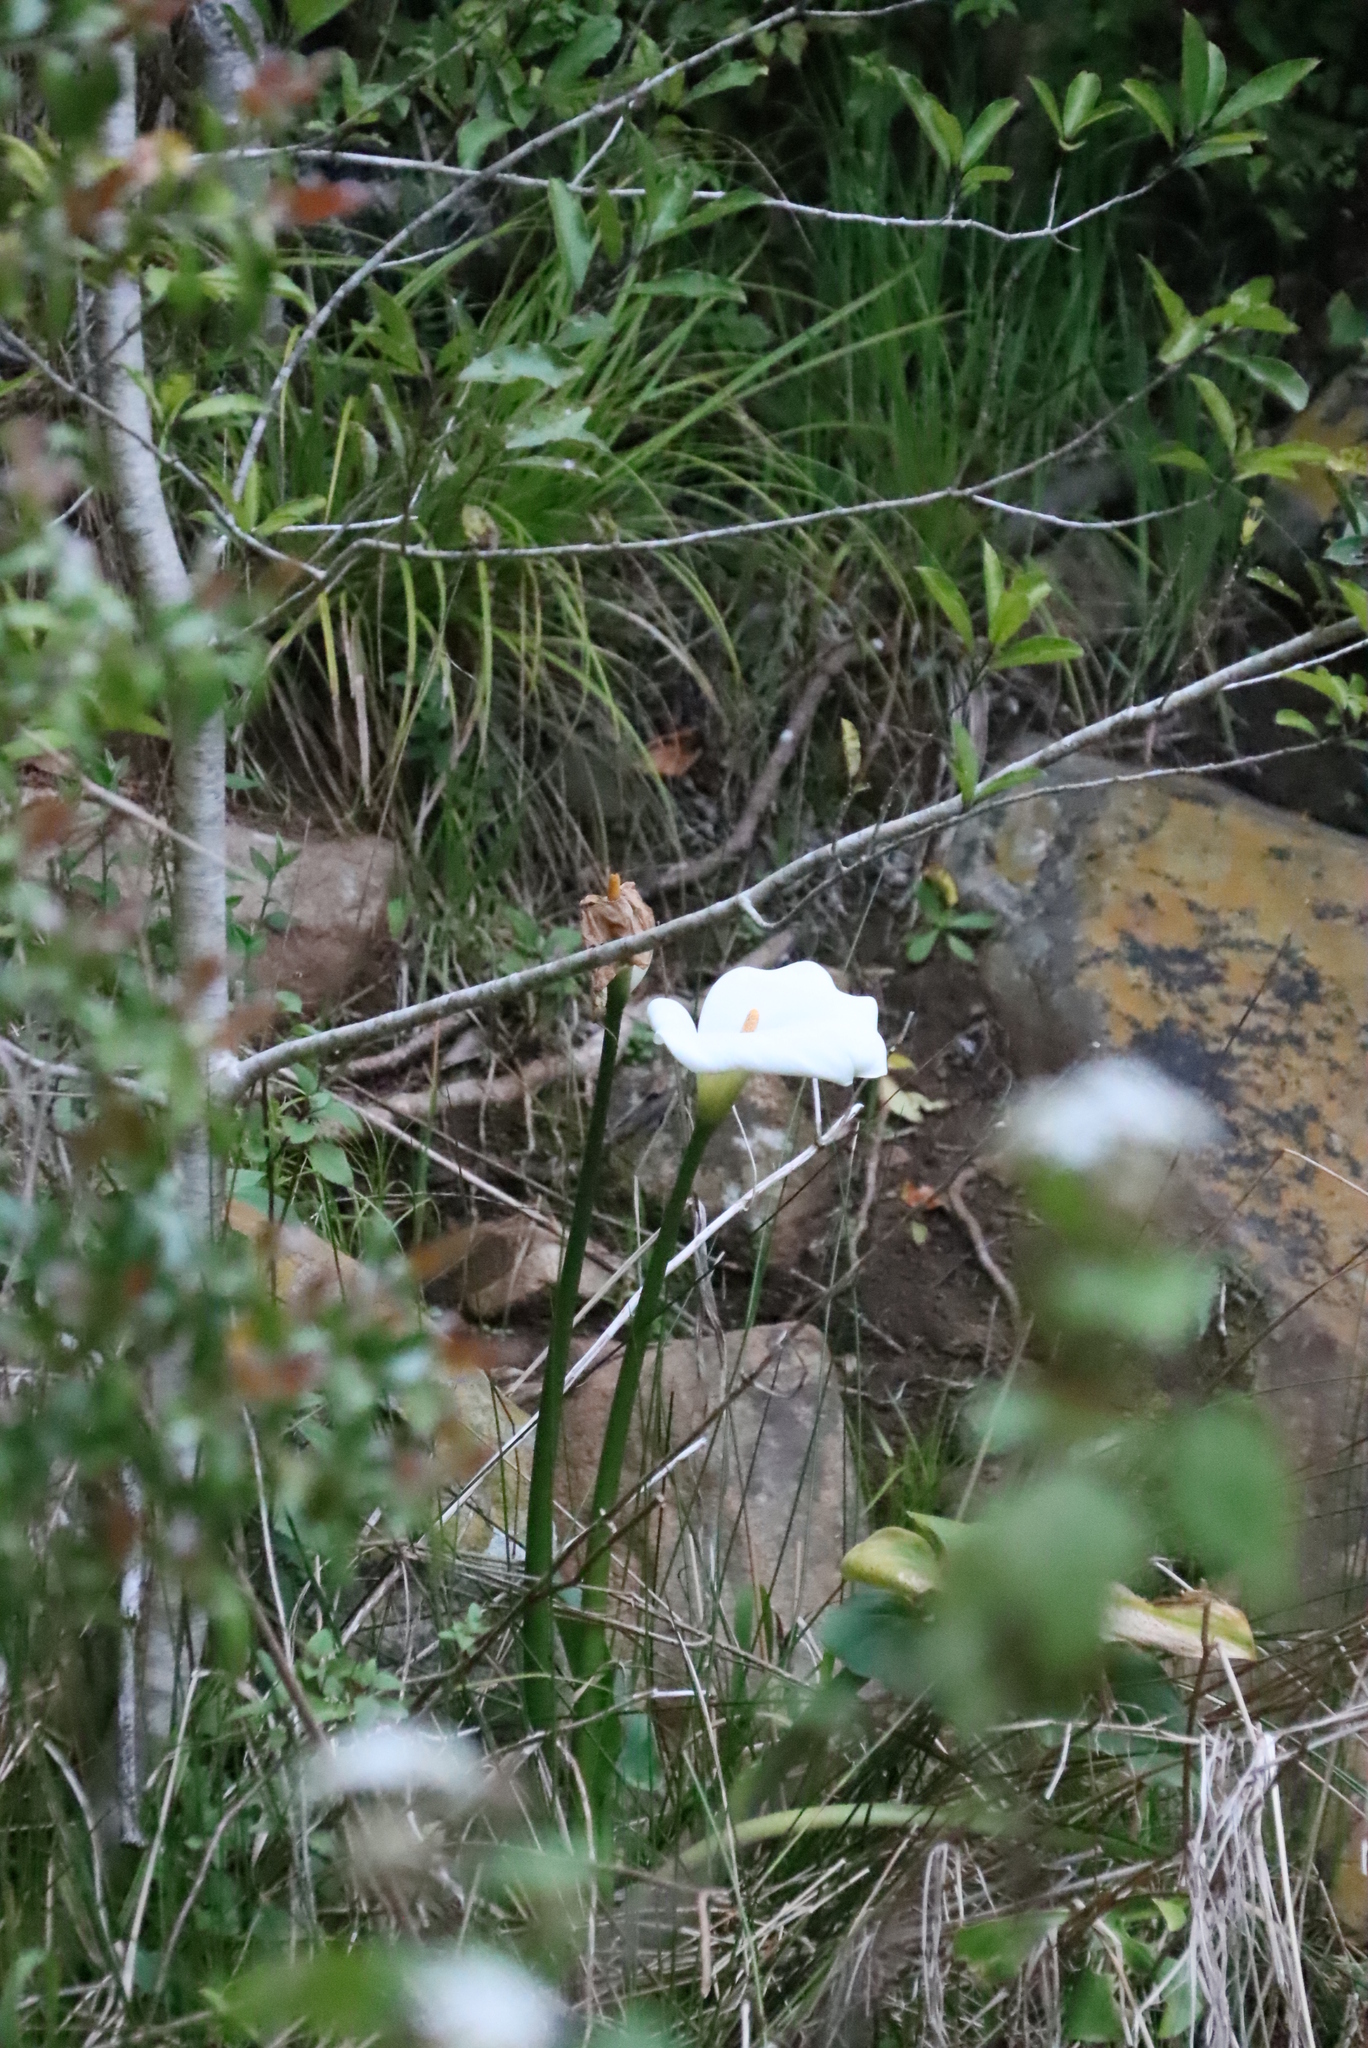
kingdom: Plantae
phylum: Tracheophyta
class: Liliopsida
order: Alismatales
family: Araceae
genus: Zantedeschia
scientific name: Zantedeschia aethiopica
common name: Altar-lily
